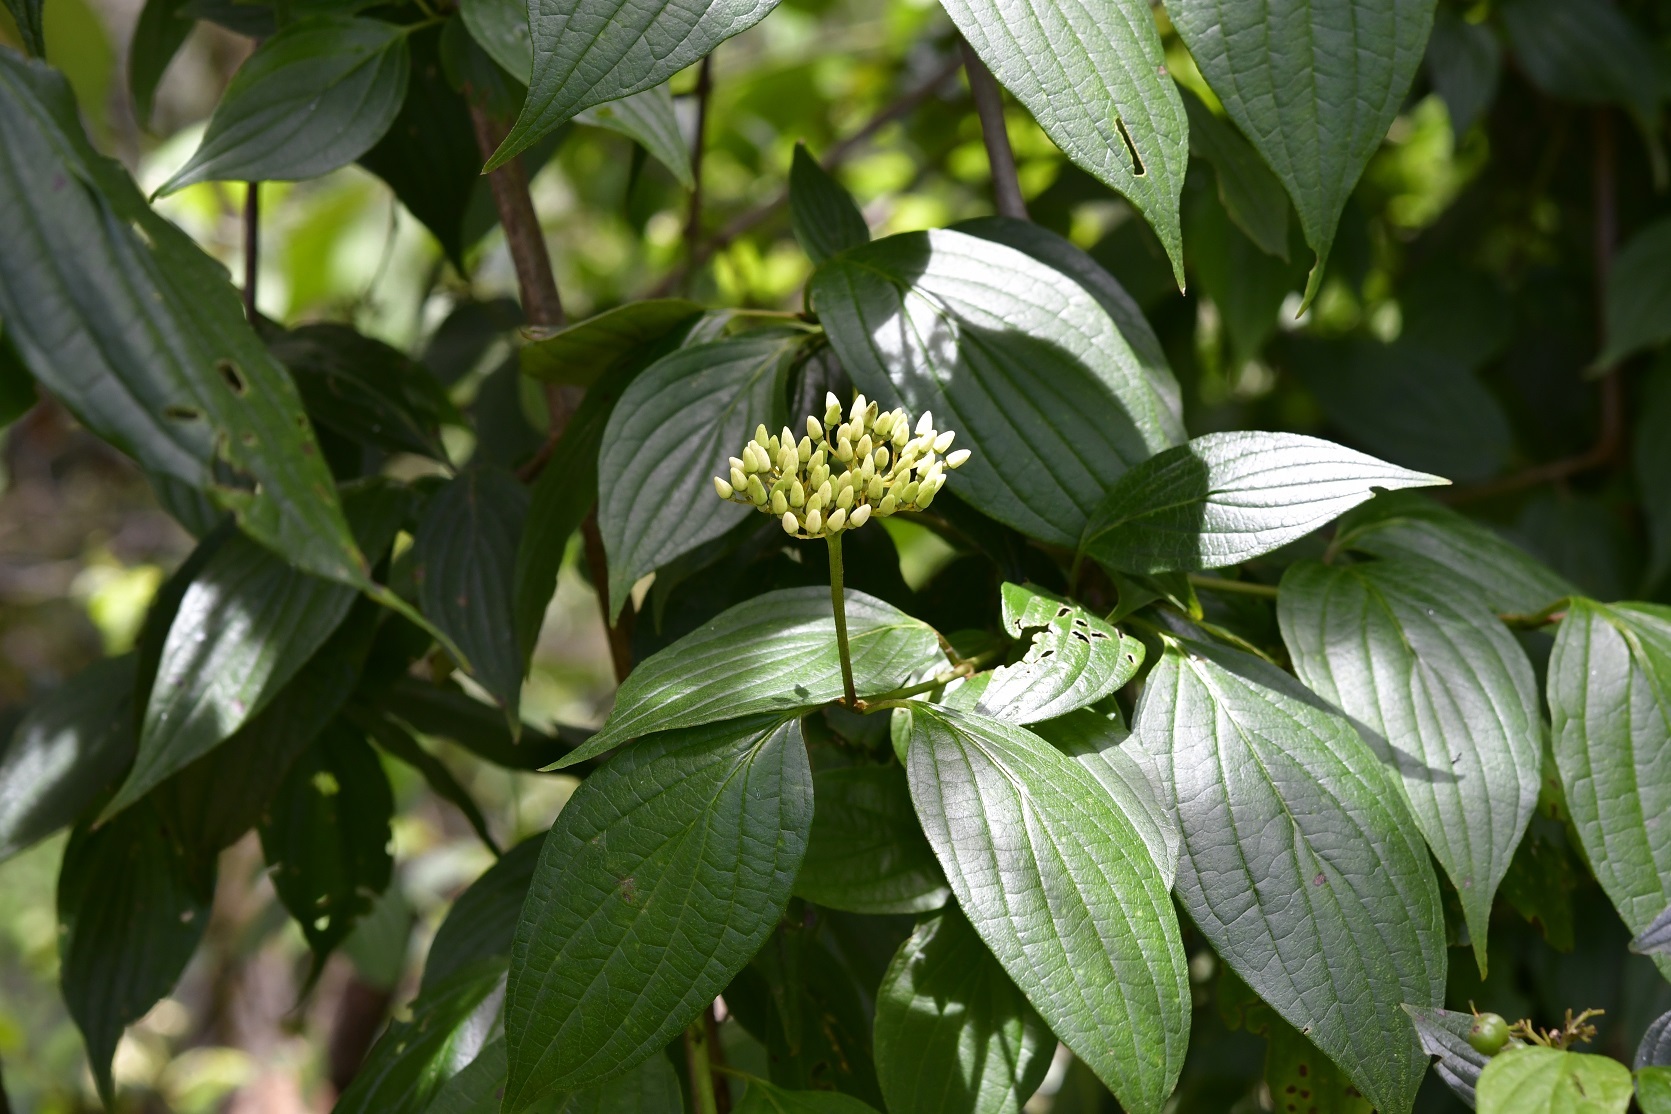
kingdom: Plantae
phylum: Tracheophyta
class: Magnoliopsida
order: Cornales
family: Cornaceae
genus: Cornus
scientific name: Cornus excelsa
